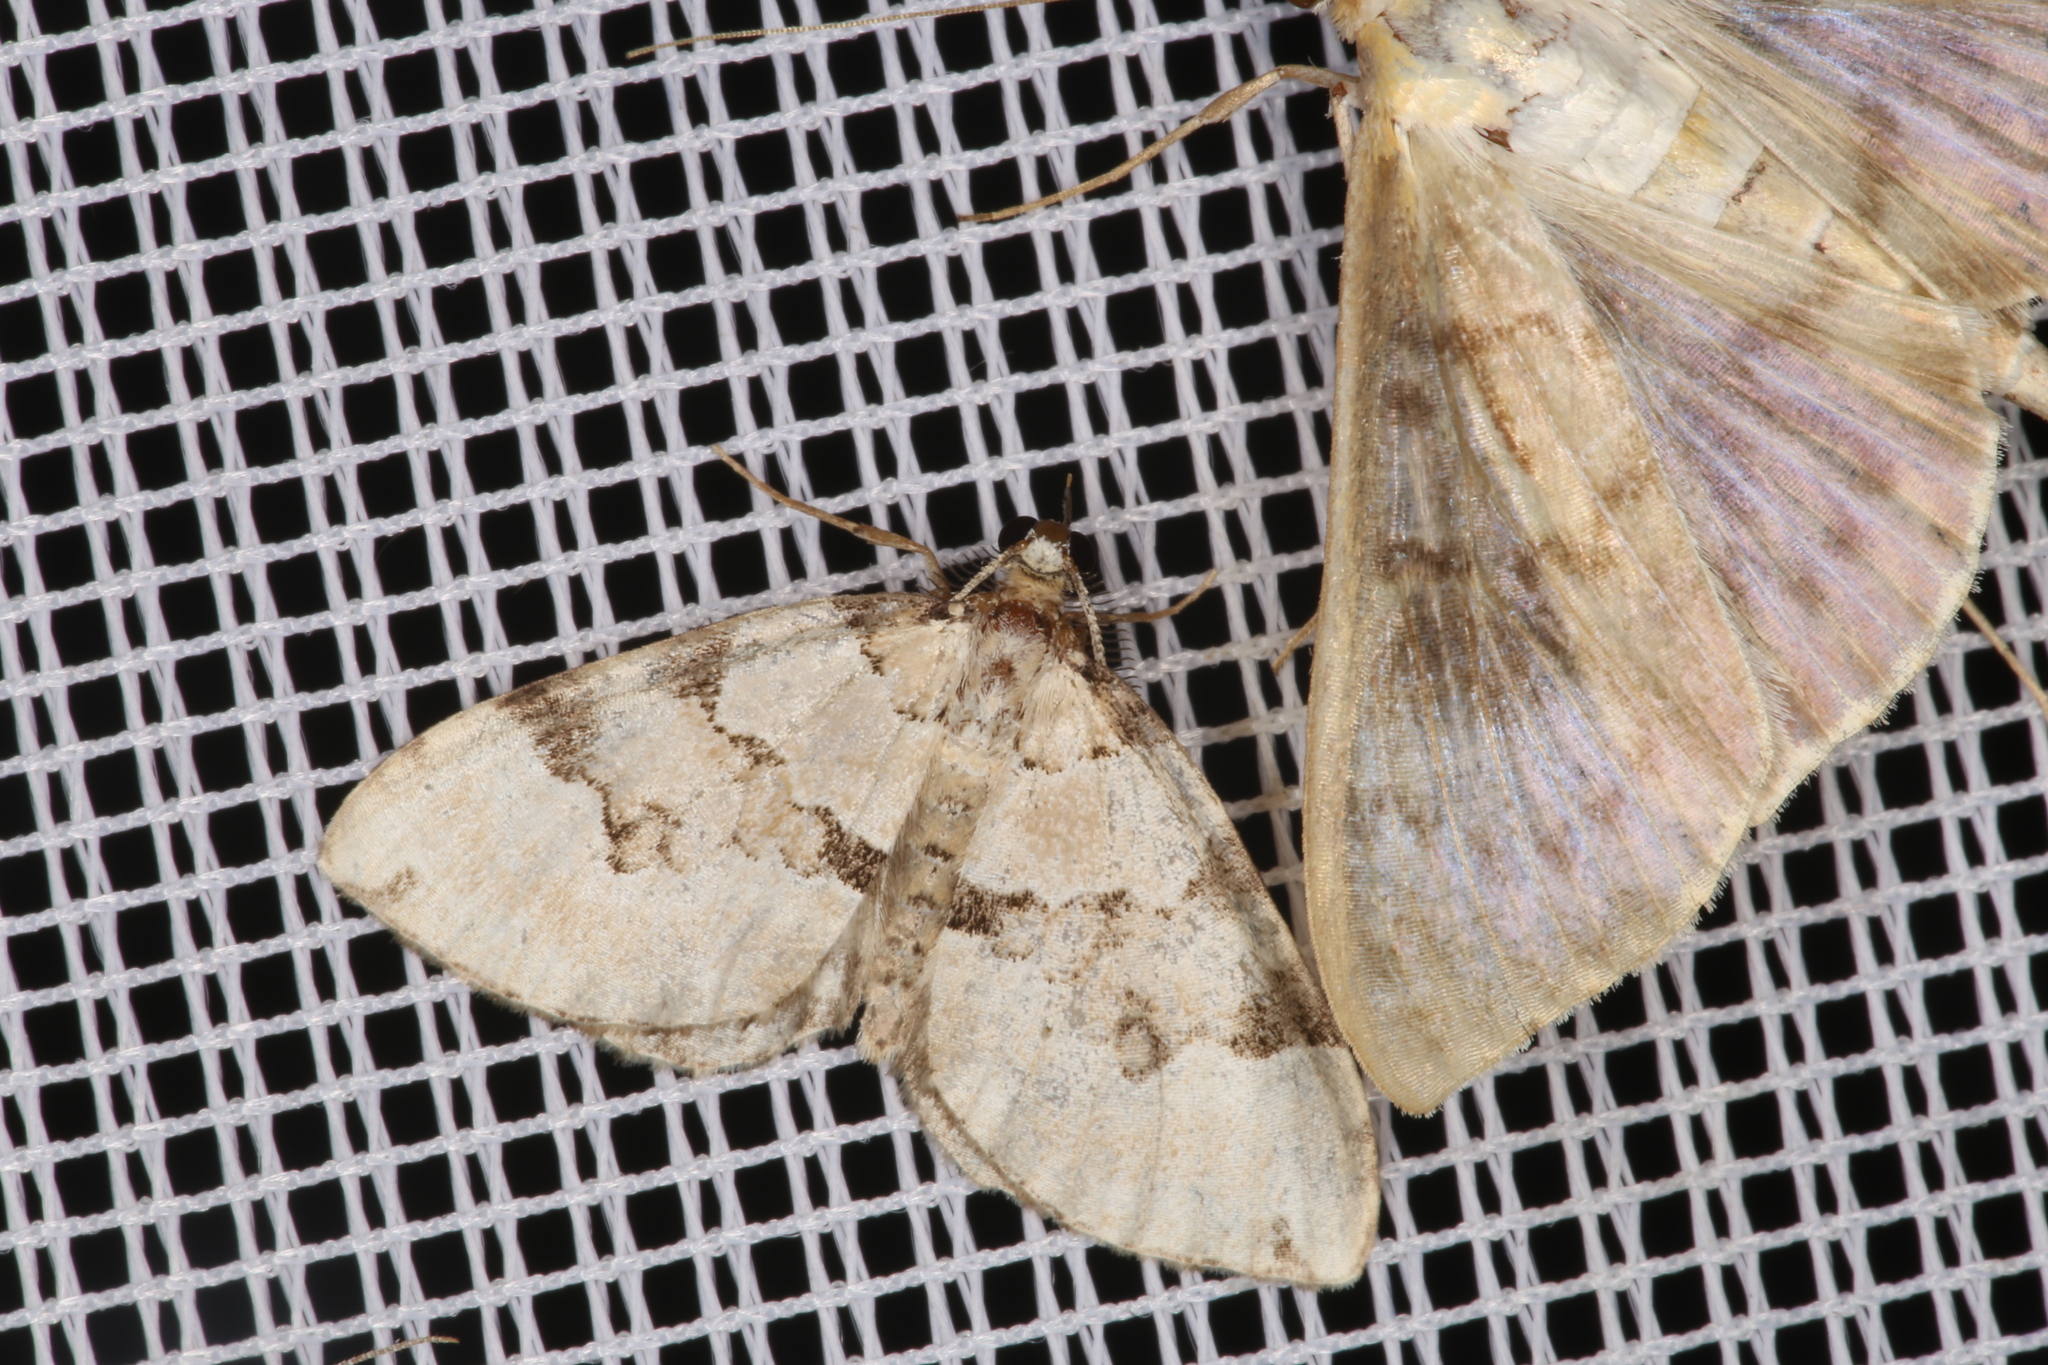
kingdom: Animalia
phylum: Arthropoda
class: Insecta
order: Lepidoptera
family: Geometridae
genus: Colostygia
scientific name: Colostygia pectinataria
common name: Green carpet
